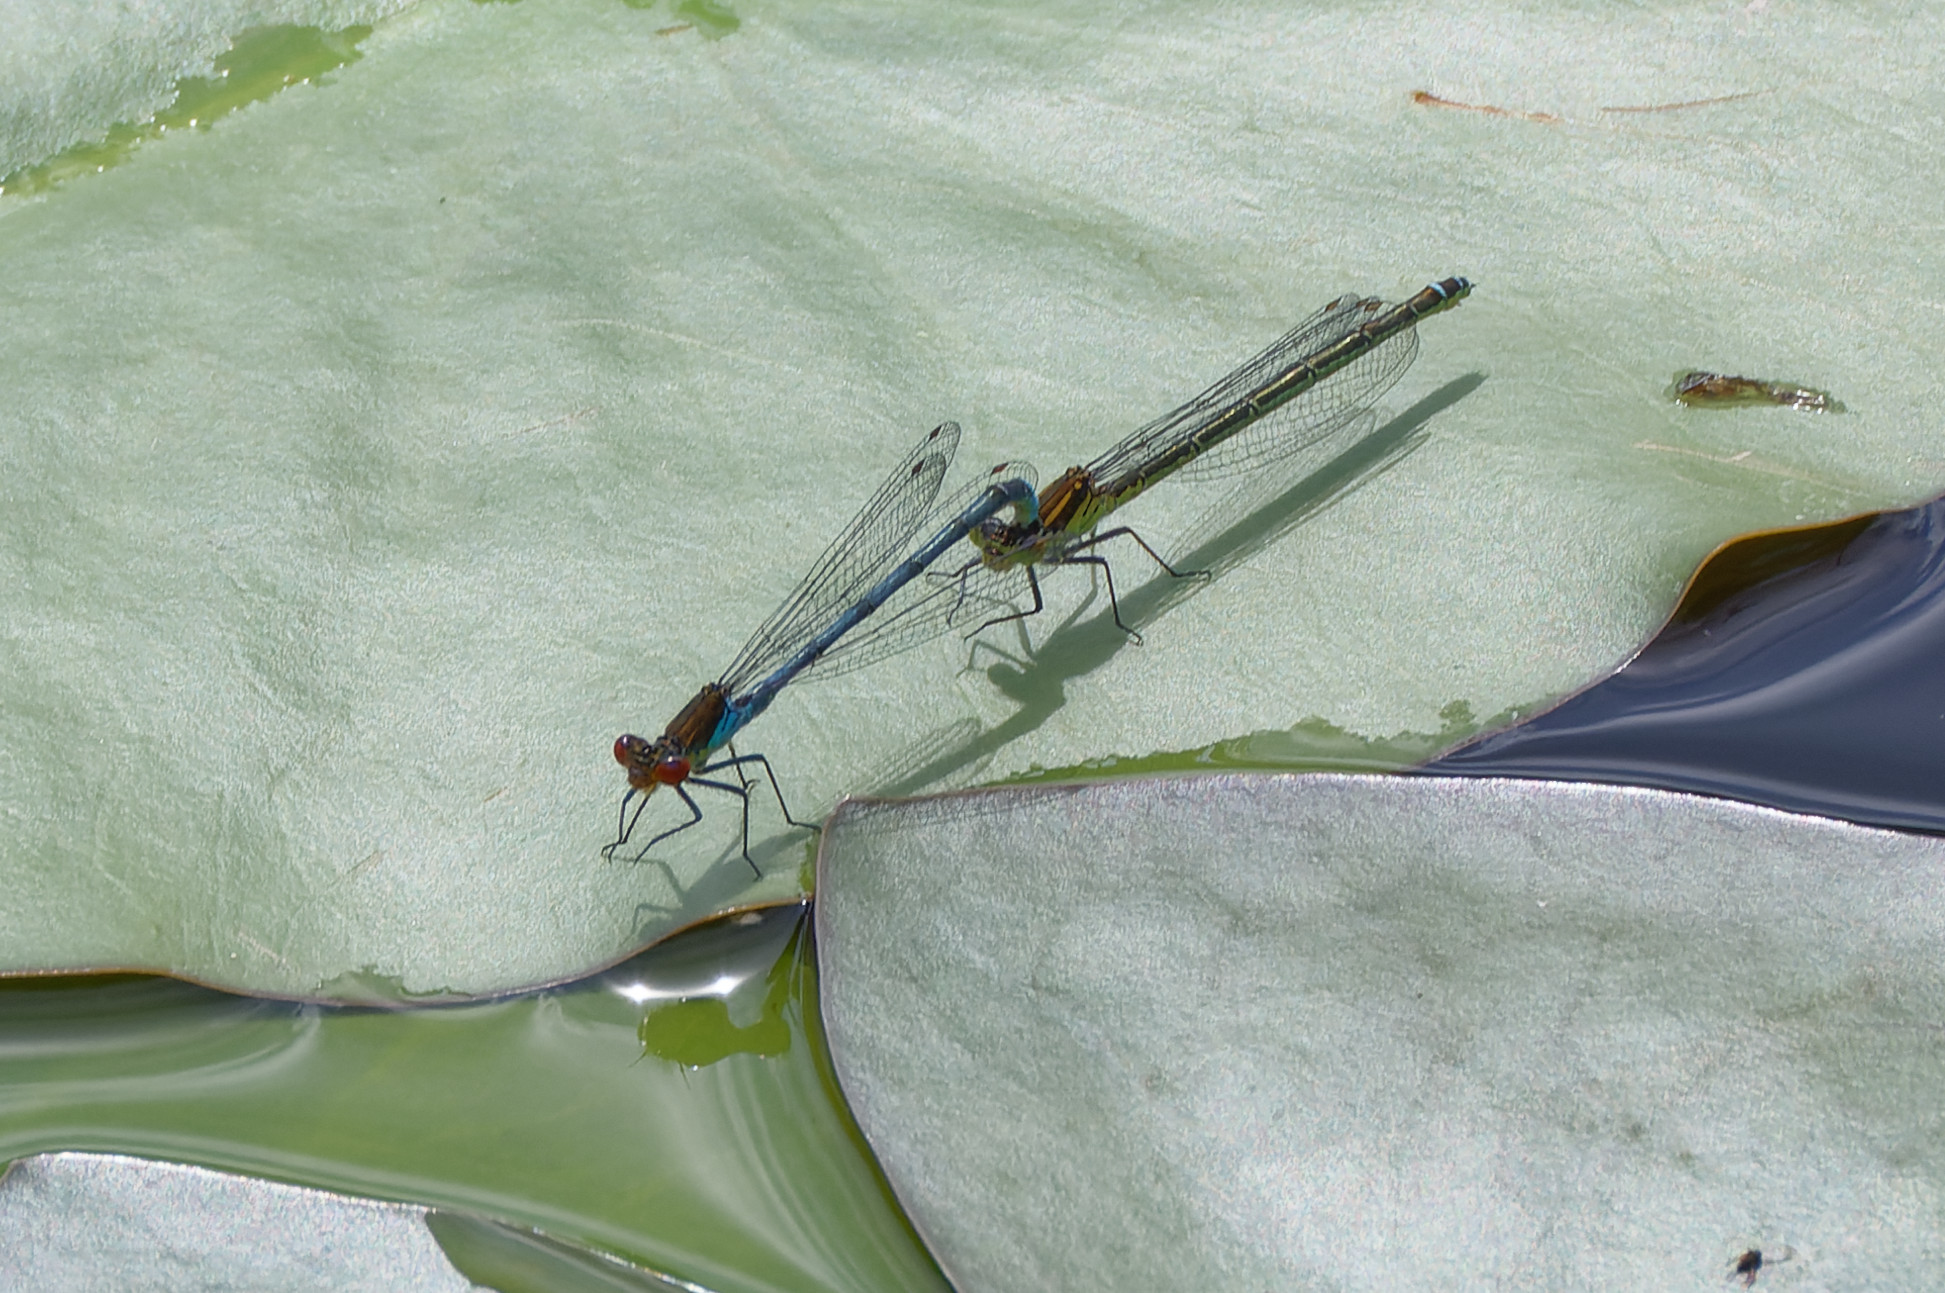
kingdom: Animalia
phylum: Arthropoda
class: Insecta
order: Odonata
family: Coenagrionidae
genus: Erythromma
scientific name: Erythromma najas
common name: Red-eyed damselfly
